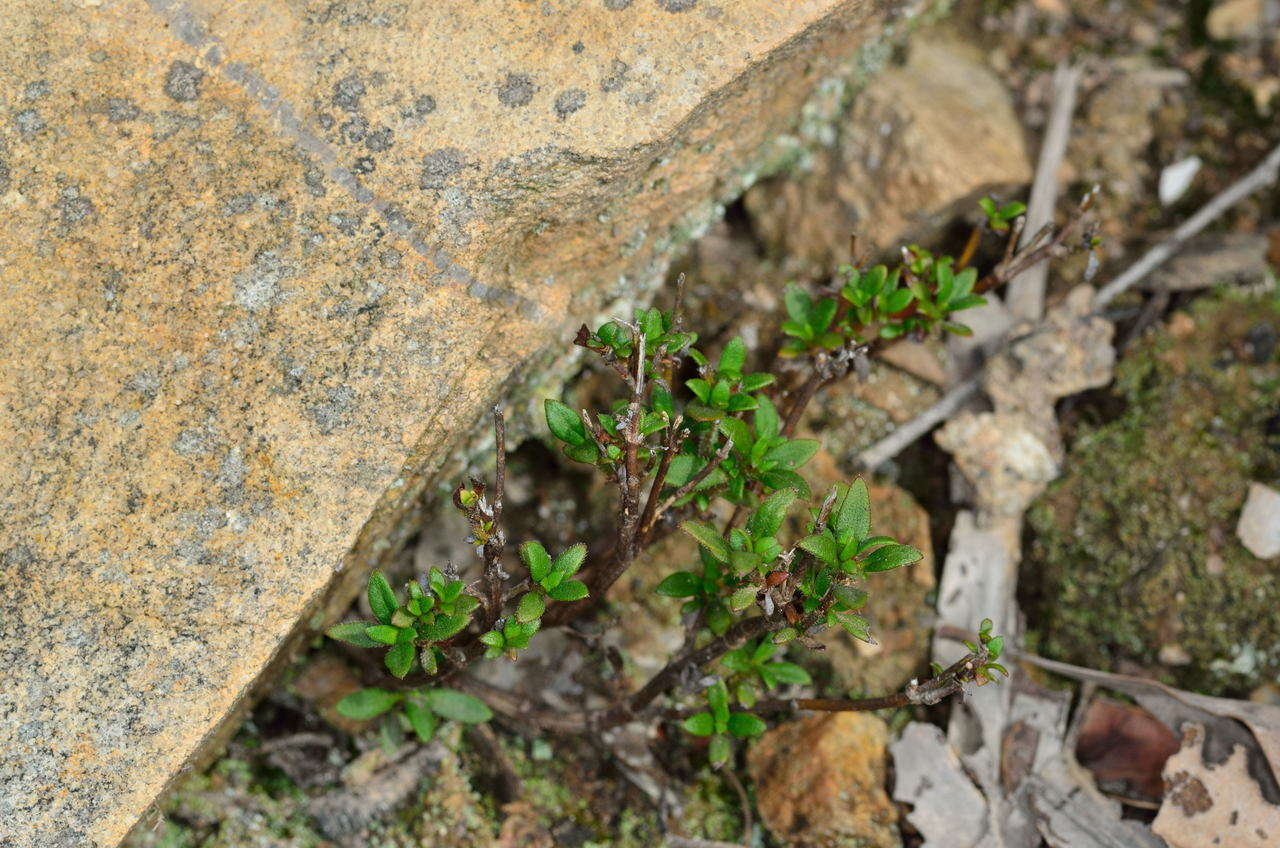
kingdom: Plantae
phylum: Tracheophyta
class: Magnoliopsida
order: Gentianales
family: Rubiaceae
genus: Pomax
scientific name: Pomax umbellata
